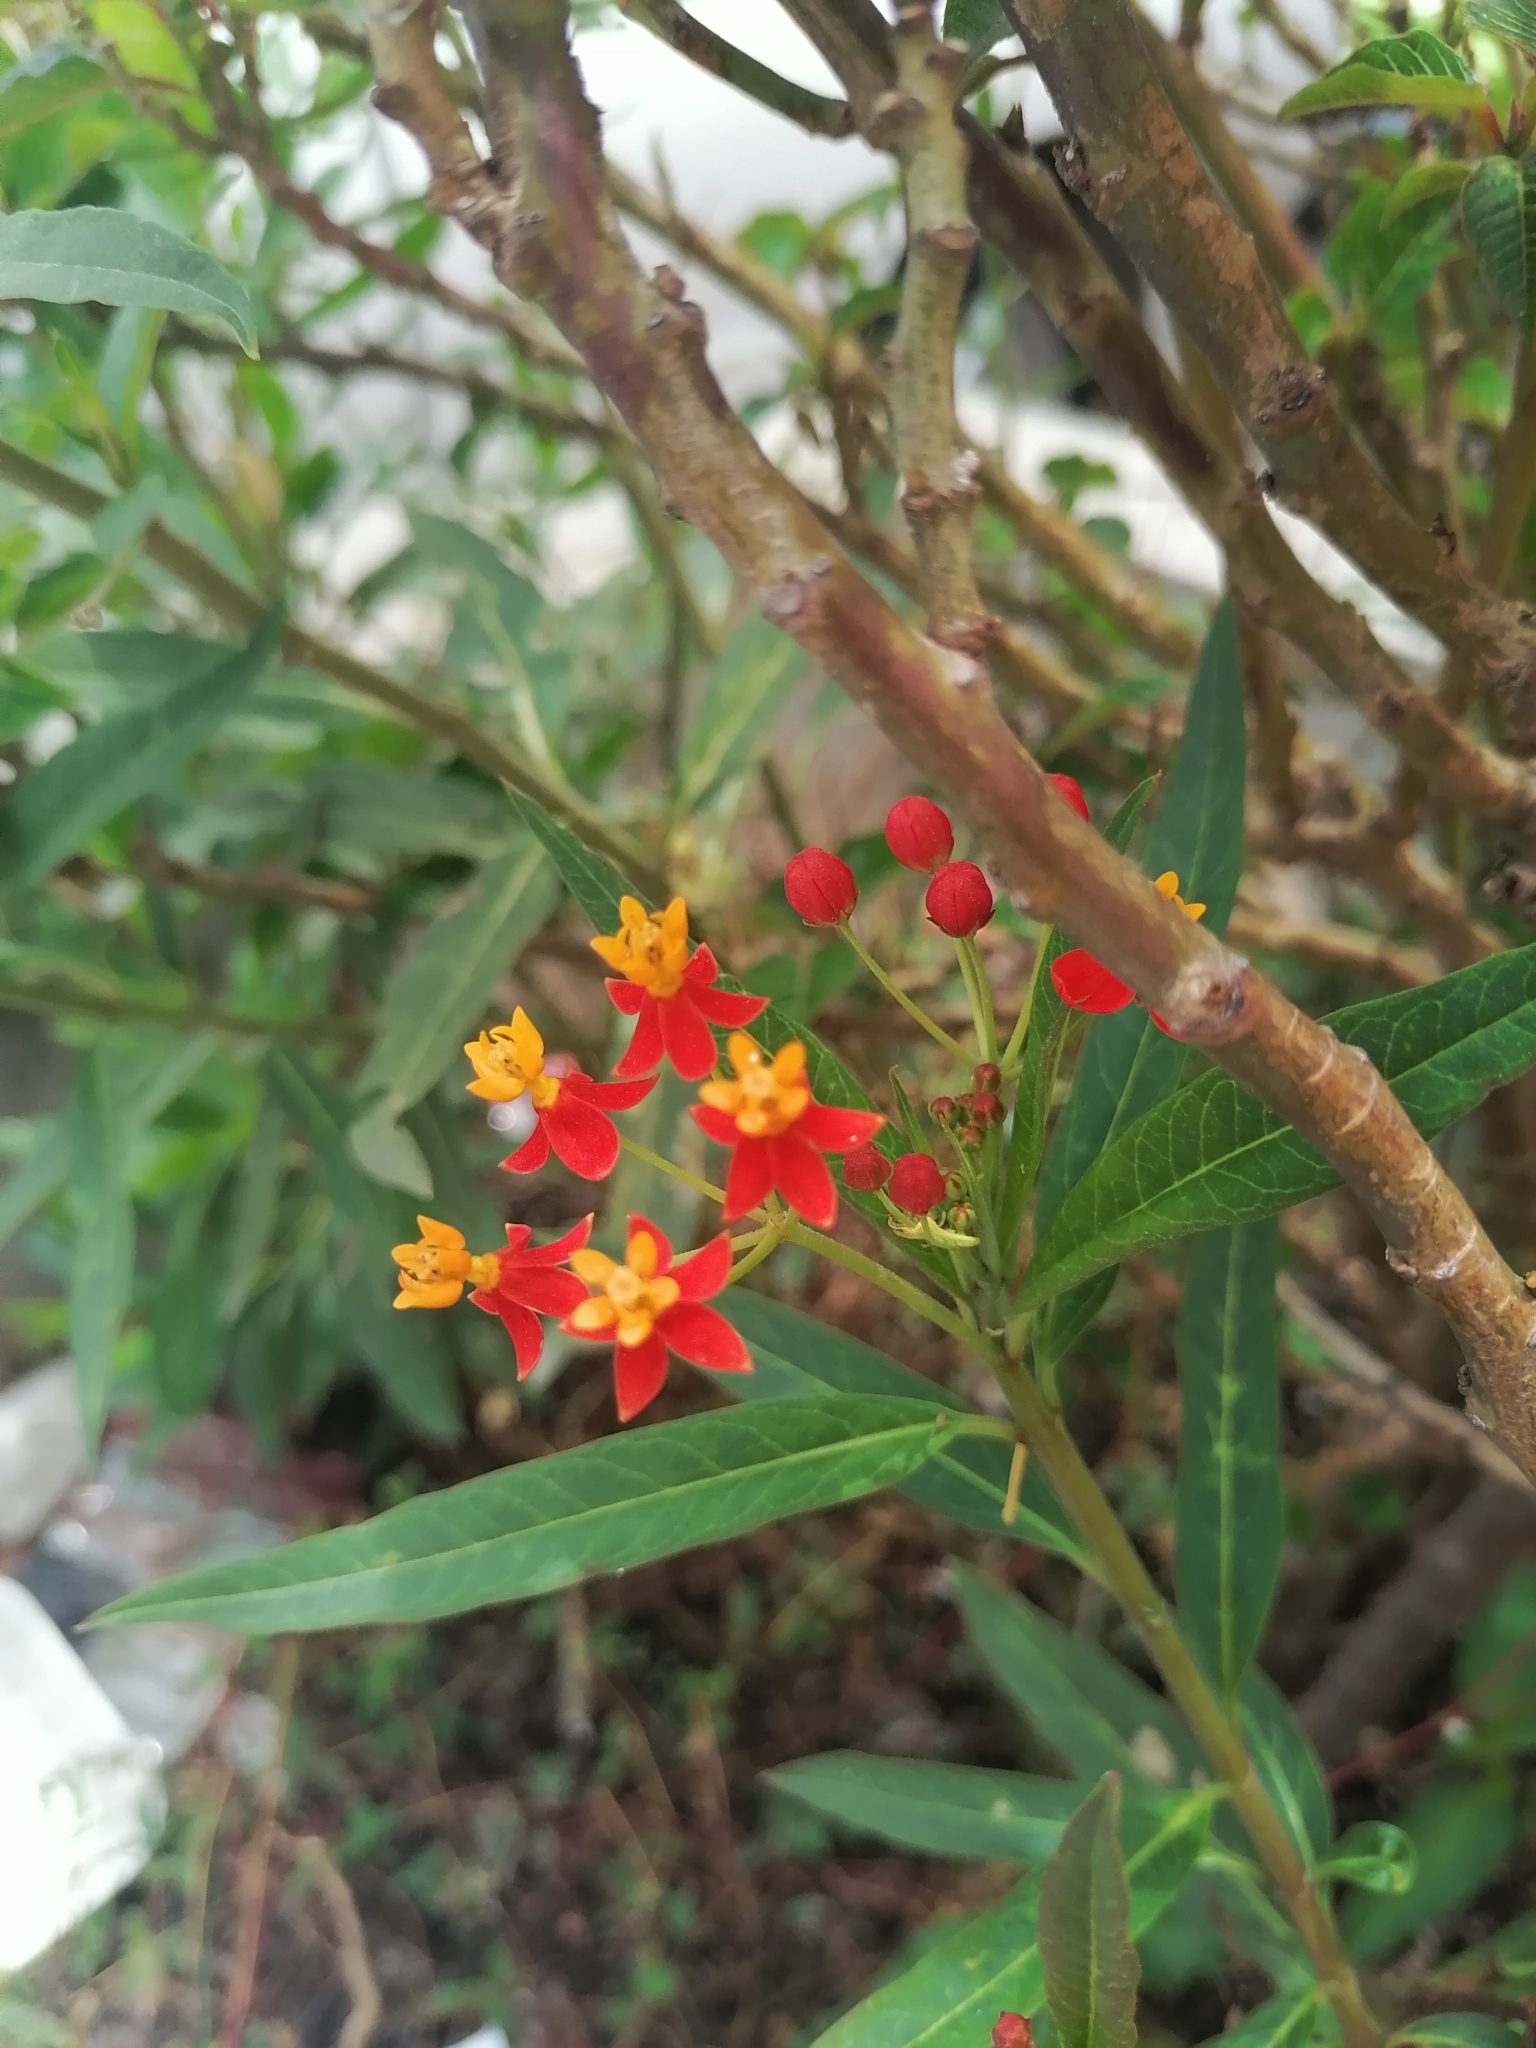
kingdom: Plantae
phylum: Tracheophyta
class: Magnoliopsida
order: Gentianales
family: Apocynaceae
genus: Asclepias
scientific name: Asclepias curassavica
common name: Bloodflower
